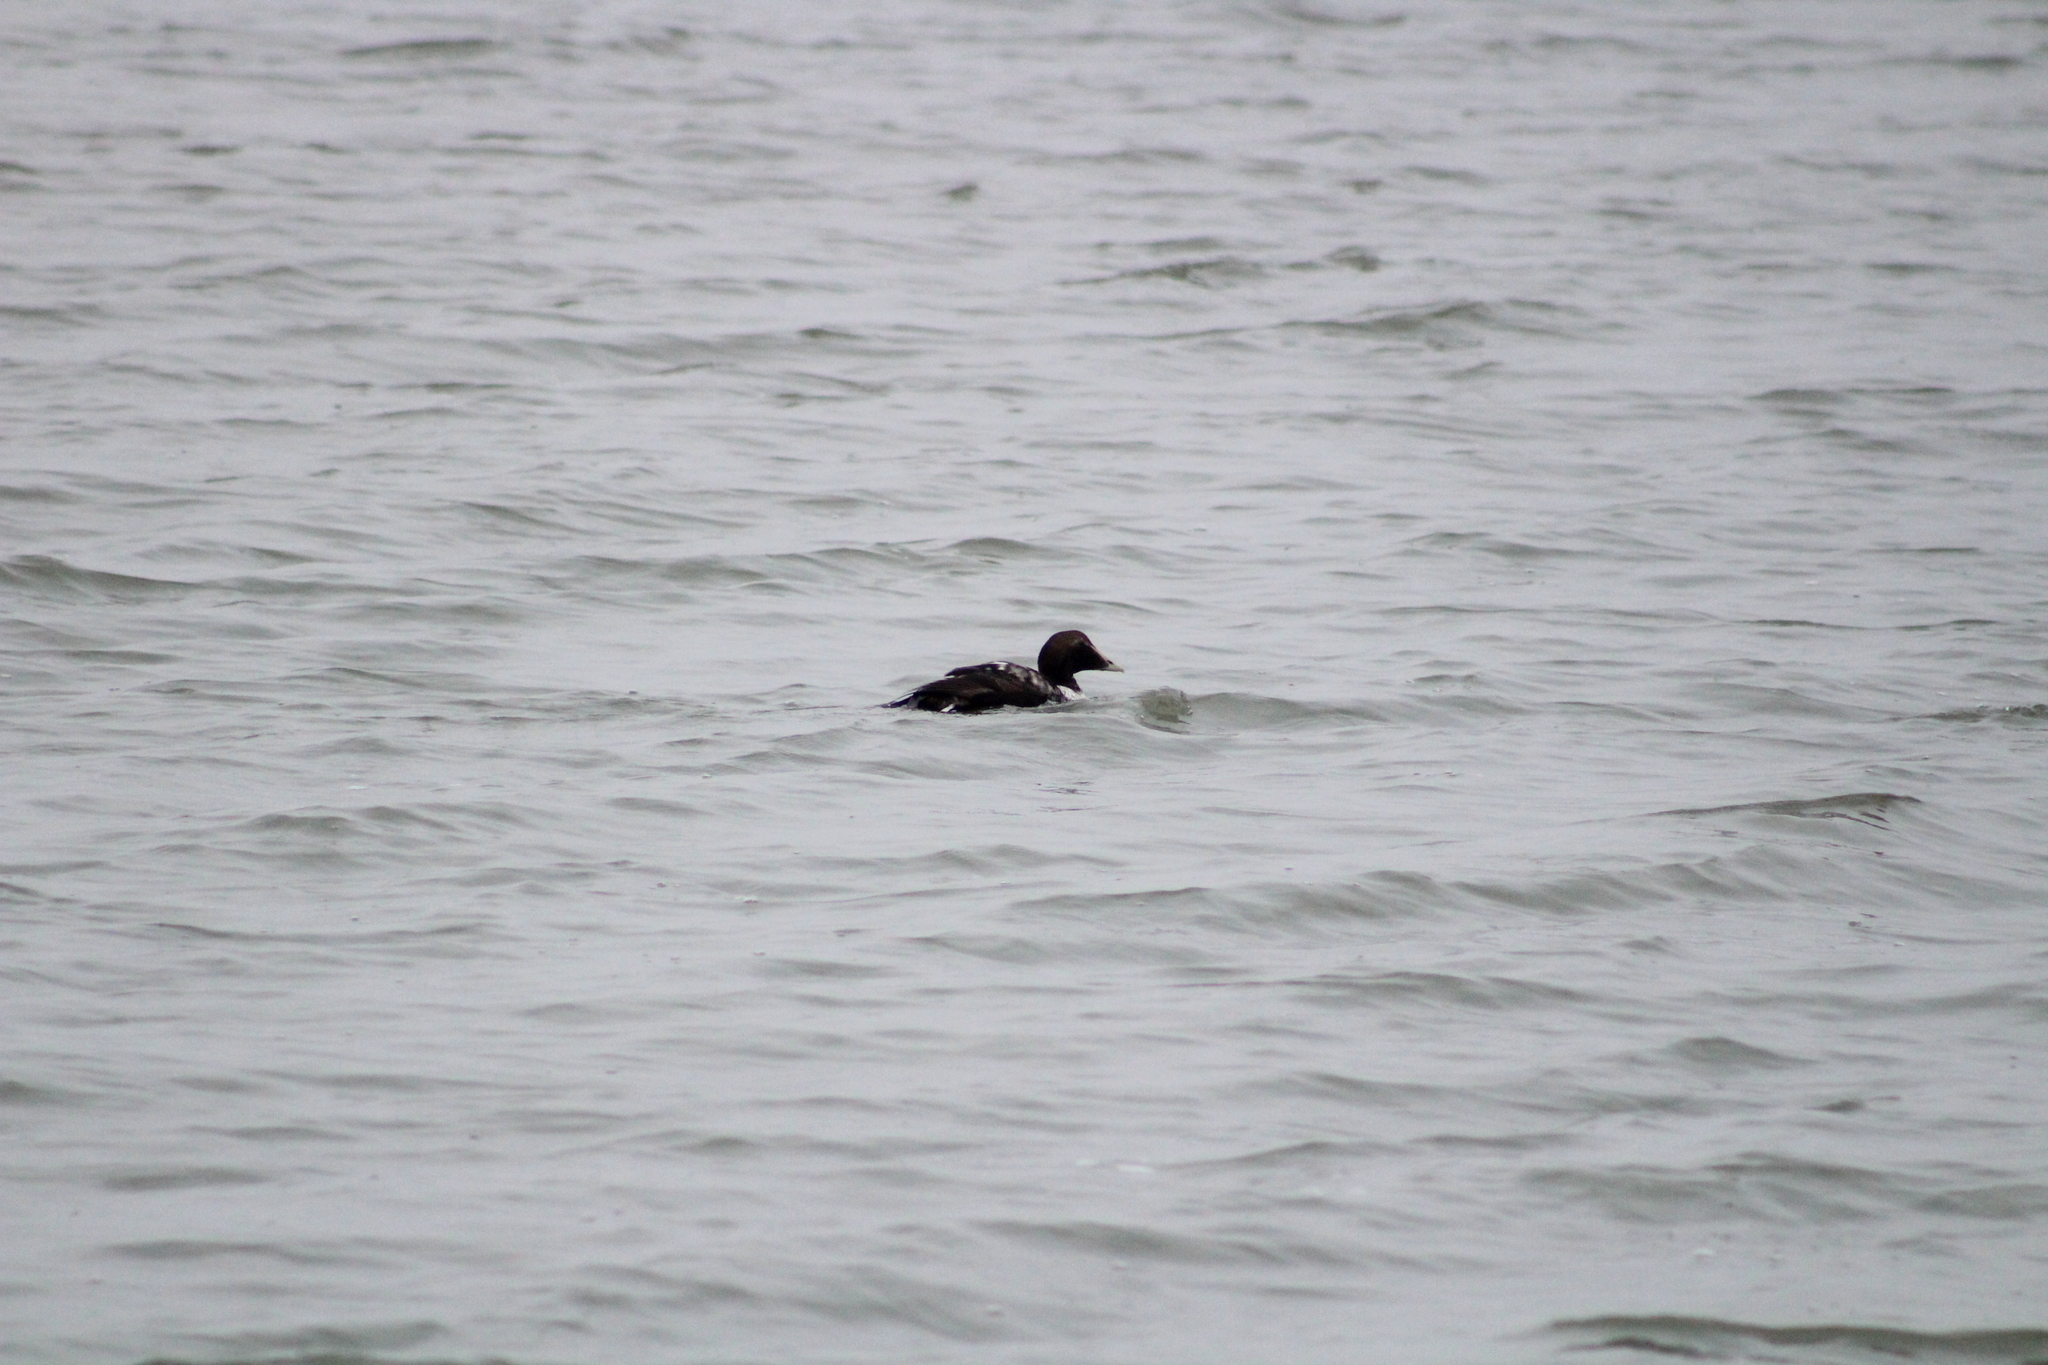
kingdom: Animalia
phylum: Chordata
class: Aves
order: Anseriformes
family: Anatidae
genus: Somateria
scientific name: Somateria mollissima
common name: Common eider
